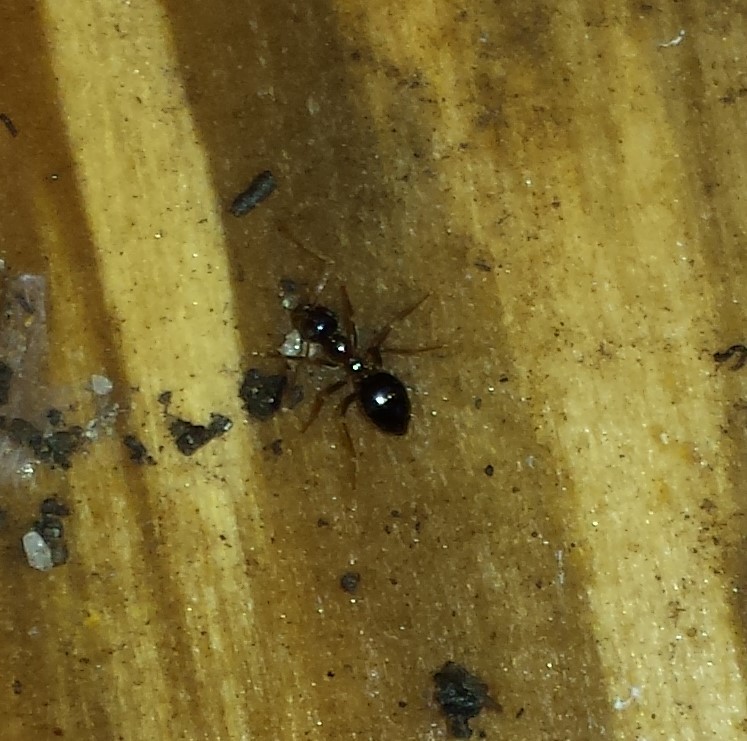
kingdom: Animalia
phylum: Arthropoda
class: Insecta
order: Hymenoptera
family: Formicidae
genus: Prenolepis
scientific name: Prenolepis imparis
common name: Small honey ant
